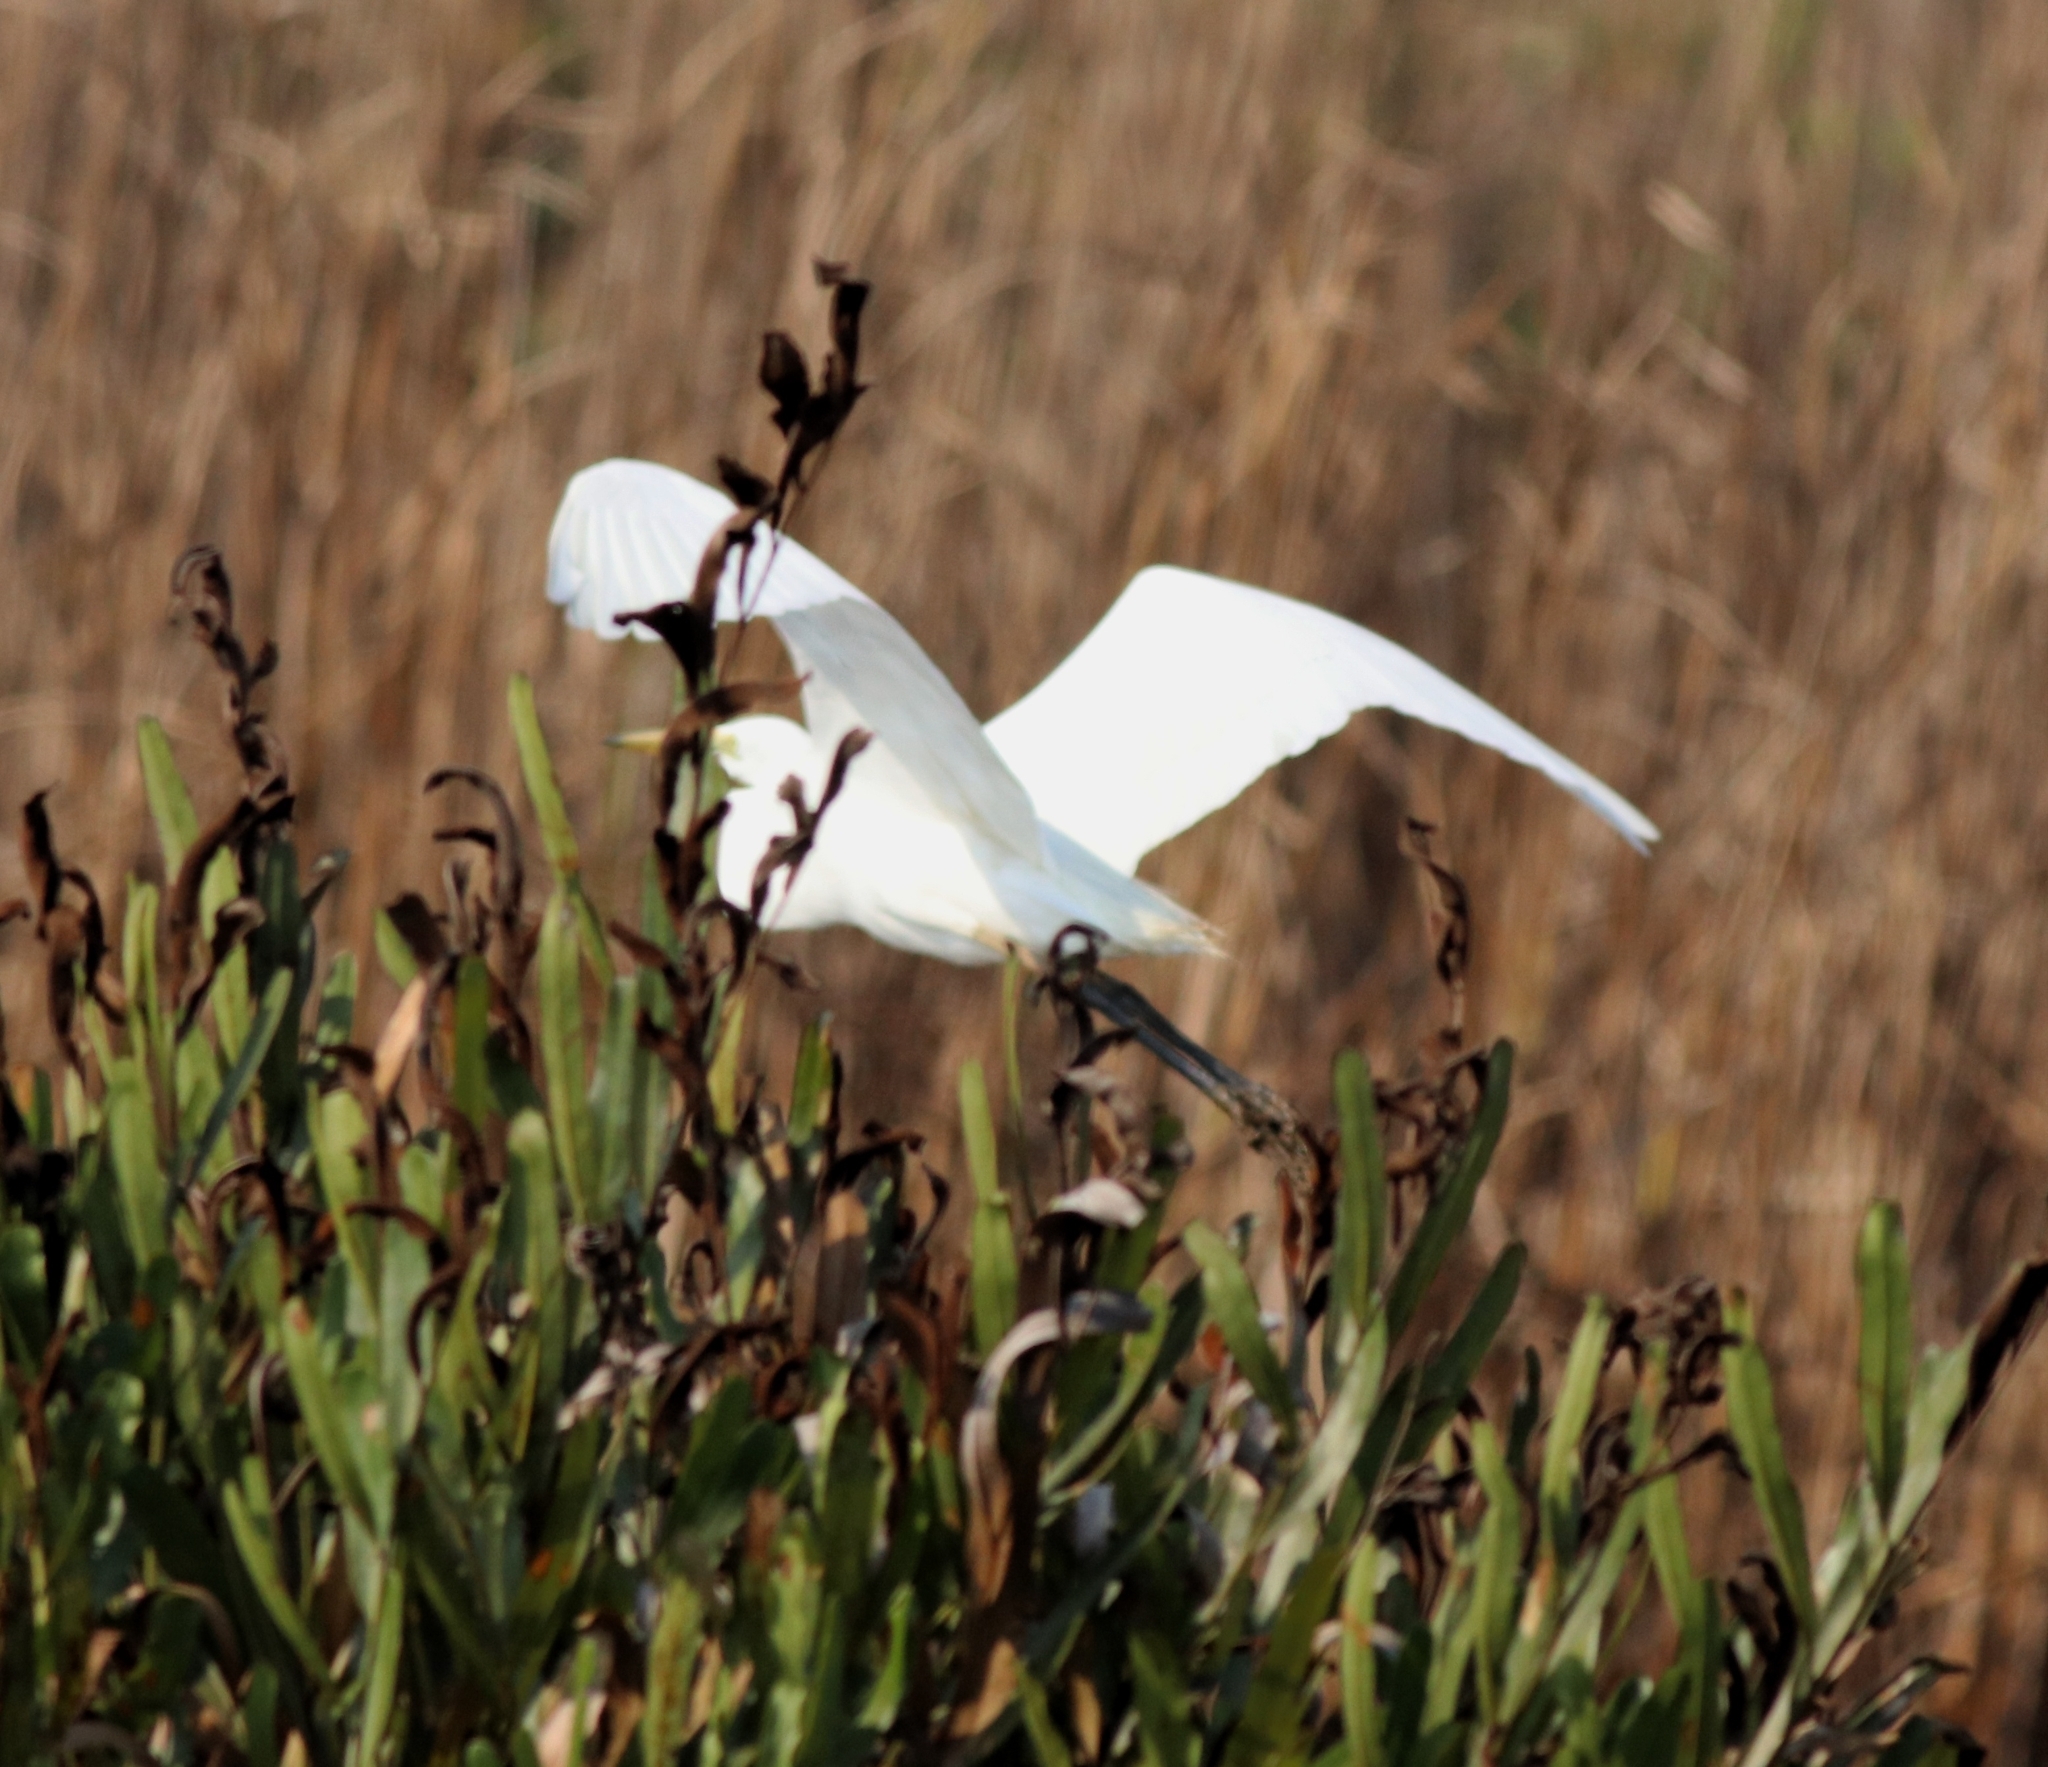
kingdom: Animalia
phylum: Chordata
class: Aves
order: Pelecaniformes
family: Ardeidae
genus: Egretta
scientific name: Egretta intermedia
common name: Intermediate egret
